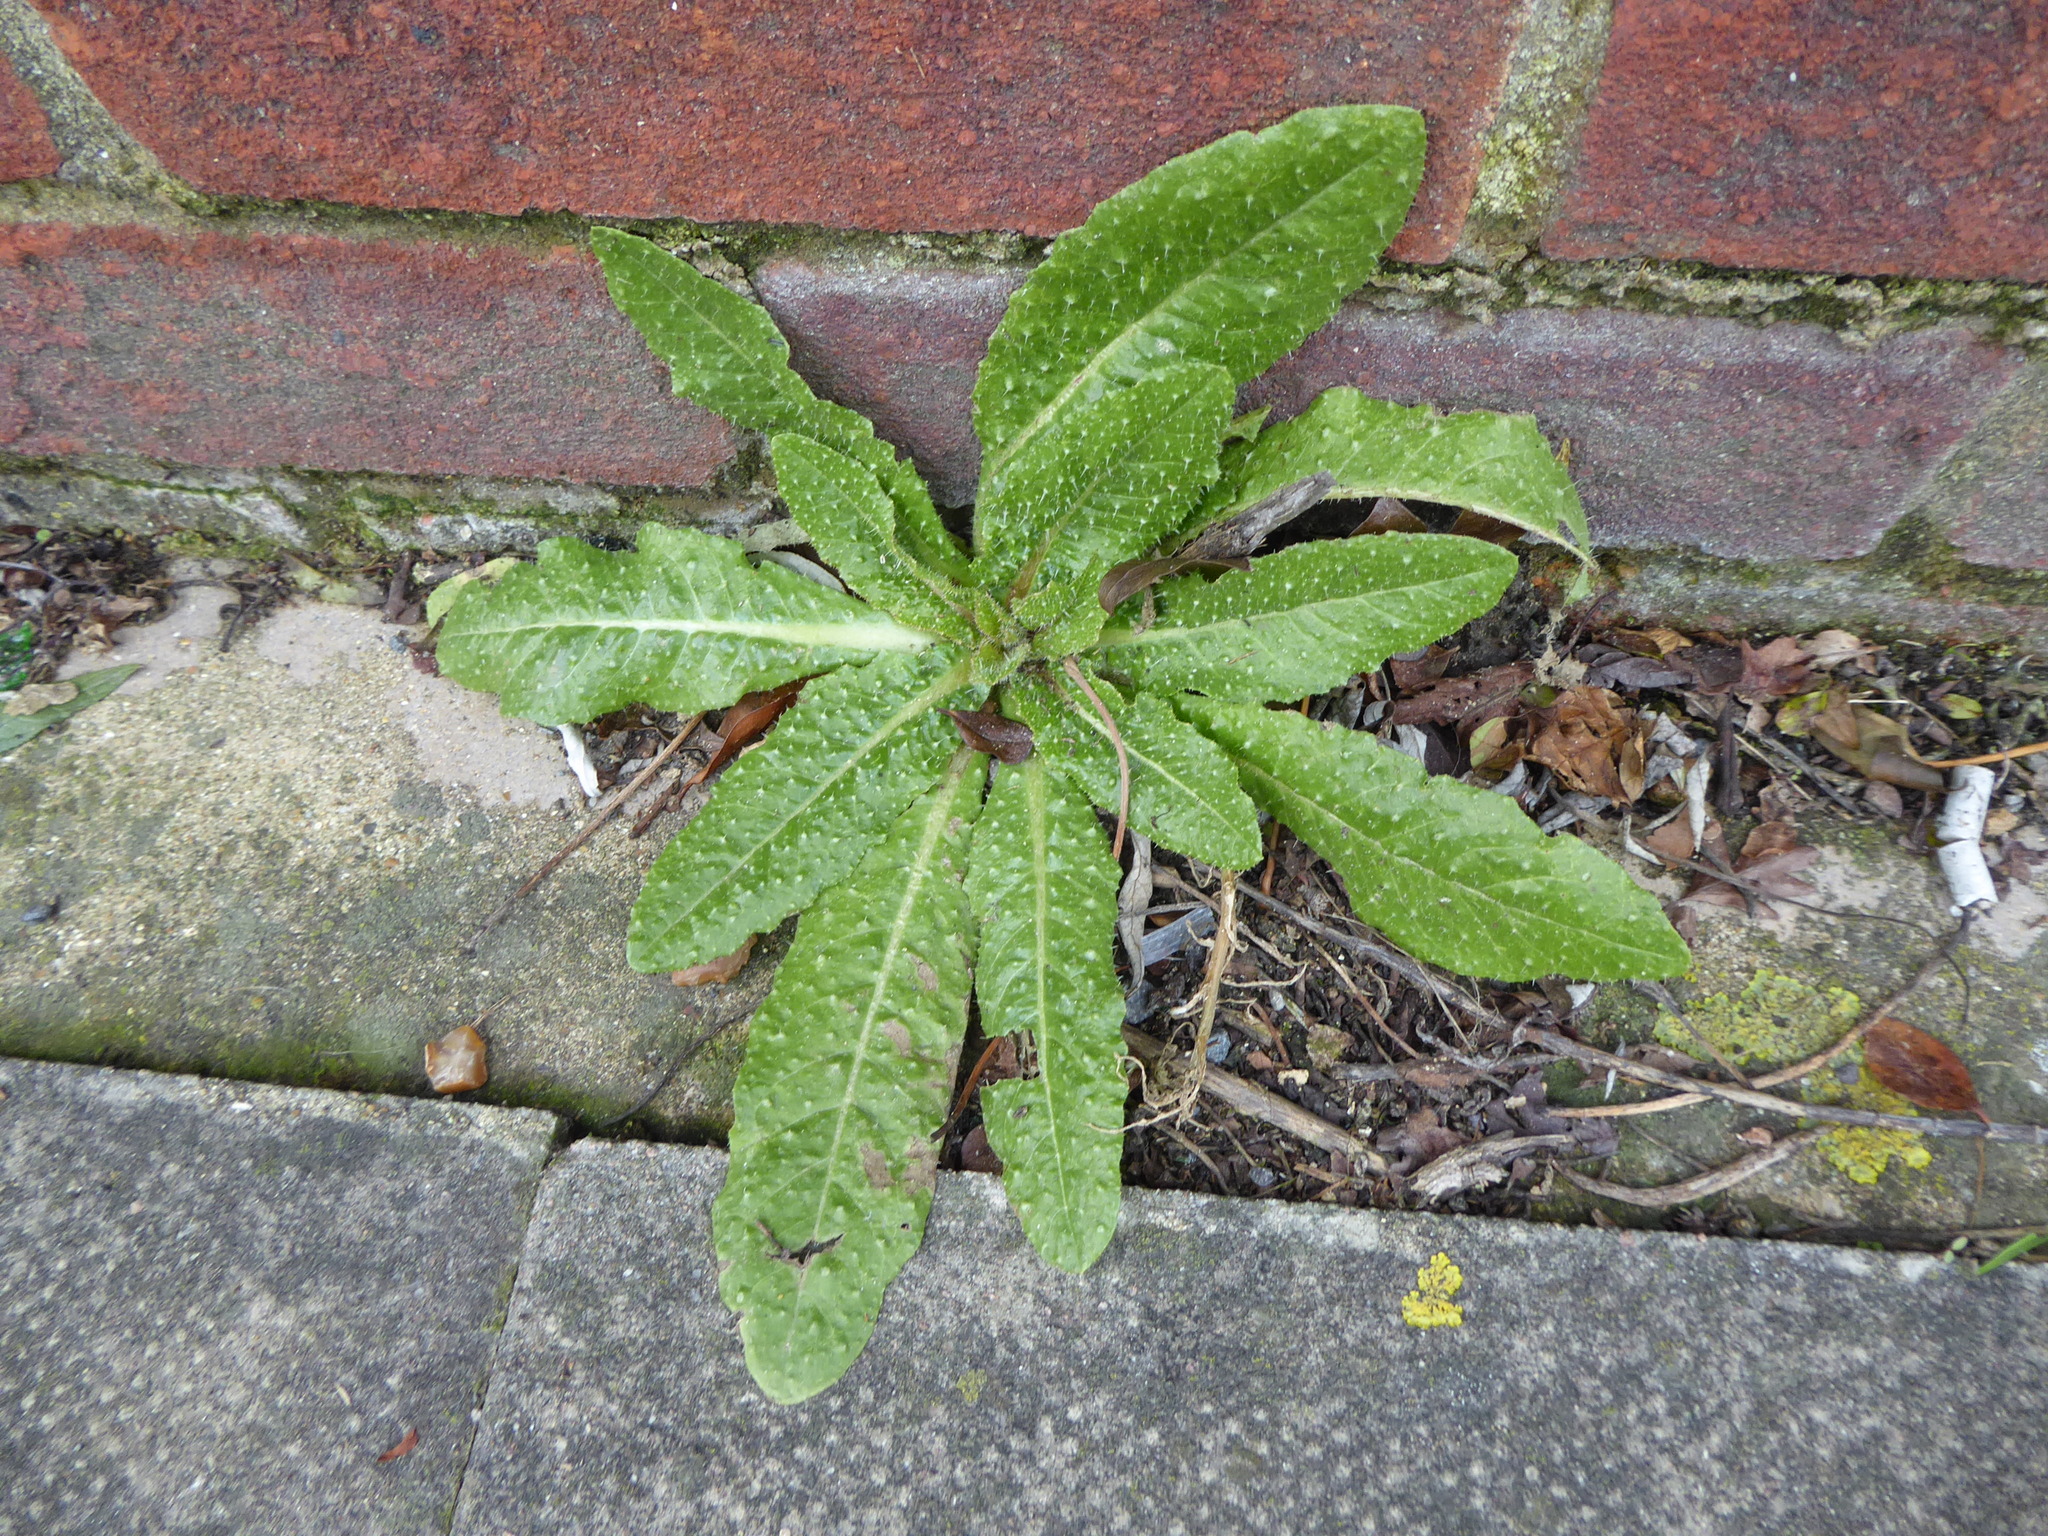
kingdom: Plantae
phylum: Tracheophyta
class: Magnoliopsida
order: Asterales
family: Asteraceae
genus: Helminthotheca
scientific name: Helminthotheca echioides
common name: Ox-tongue
